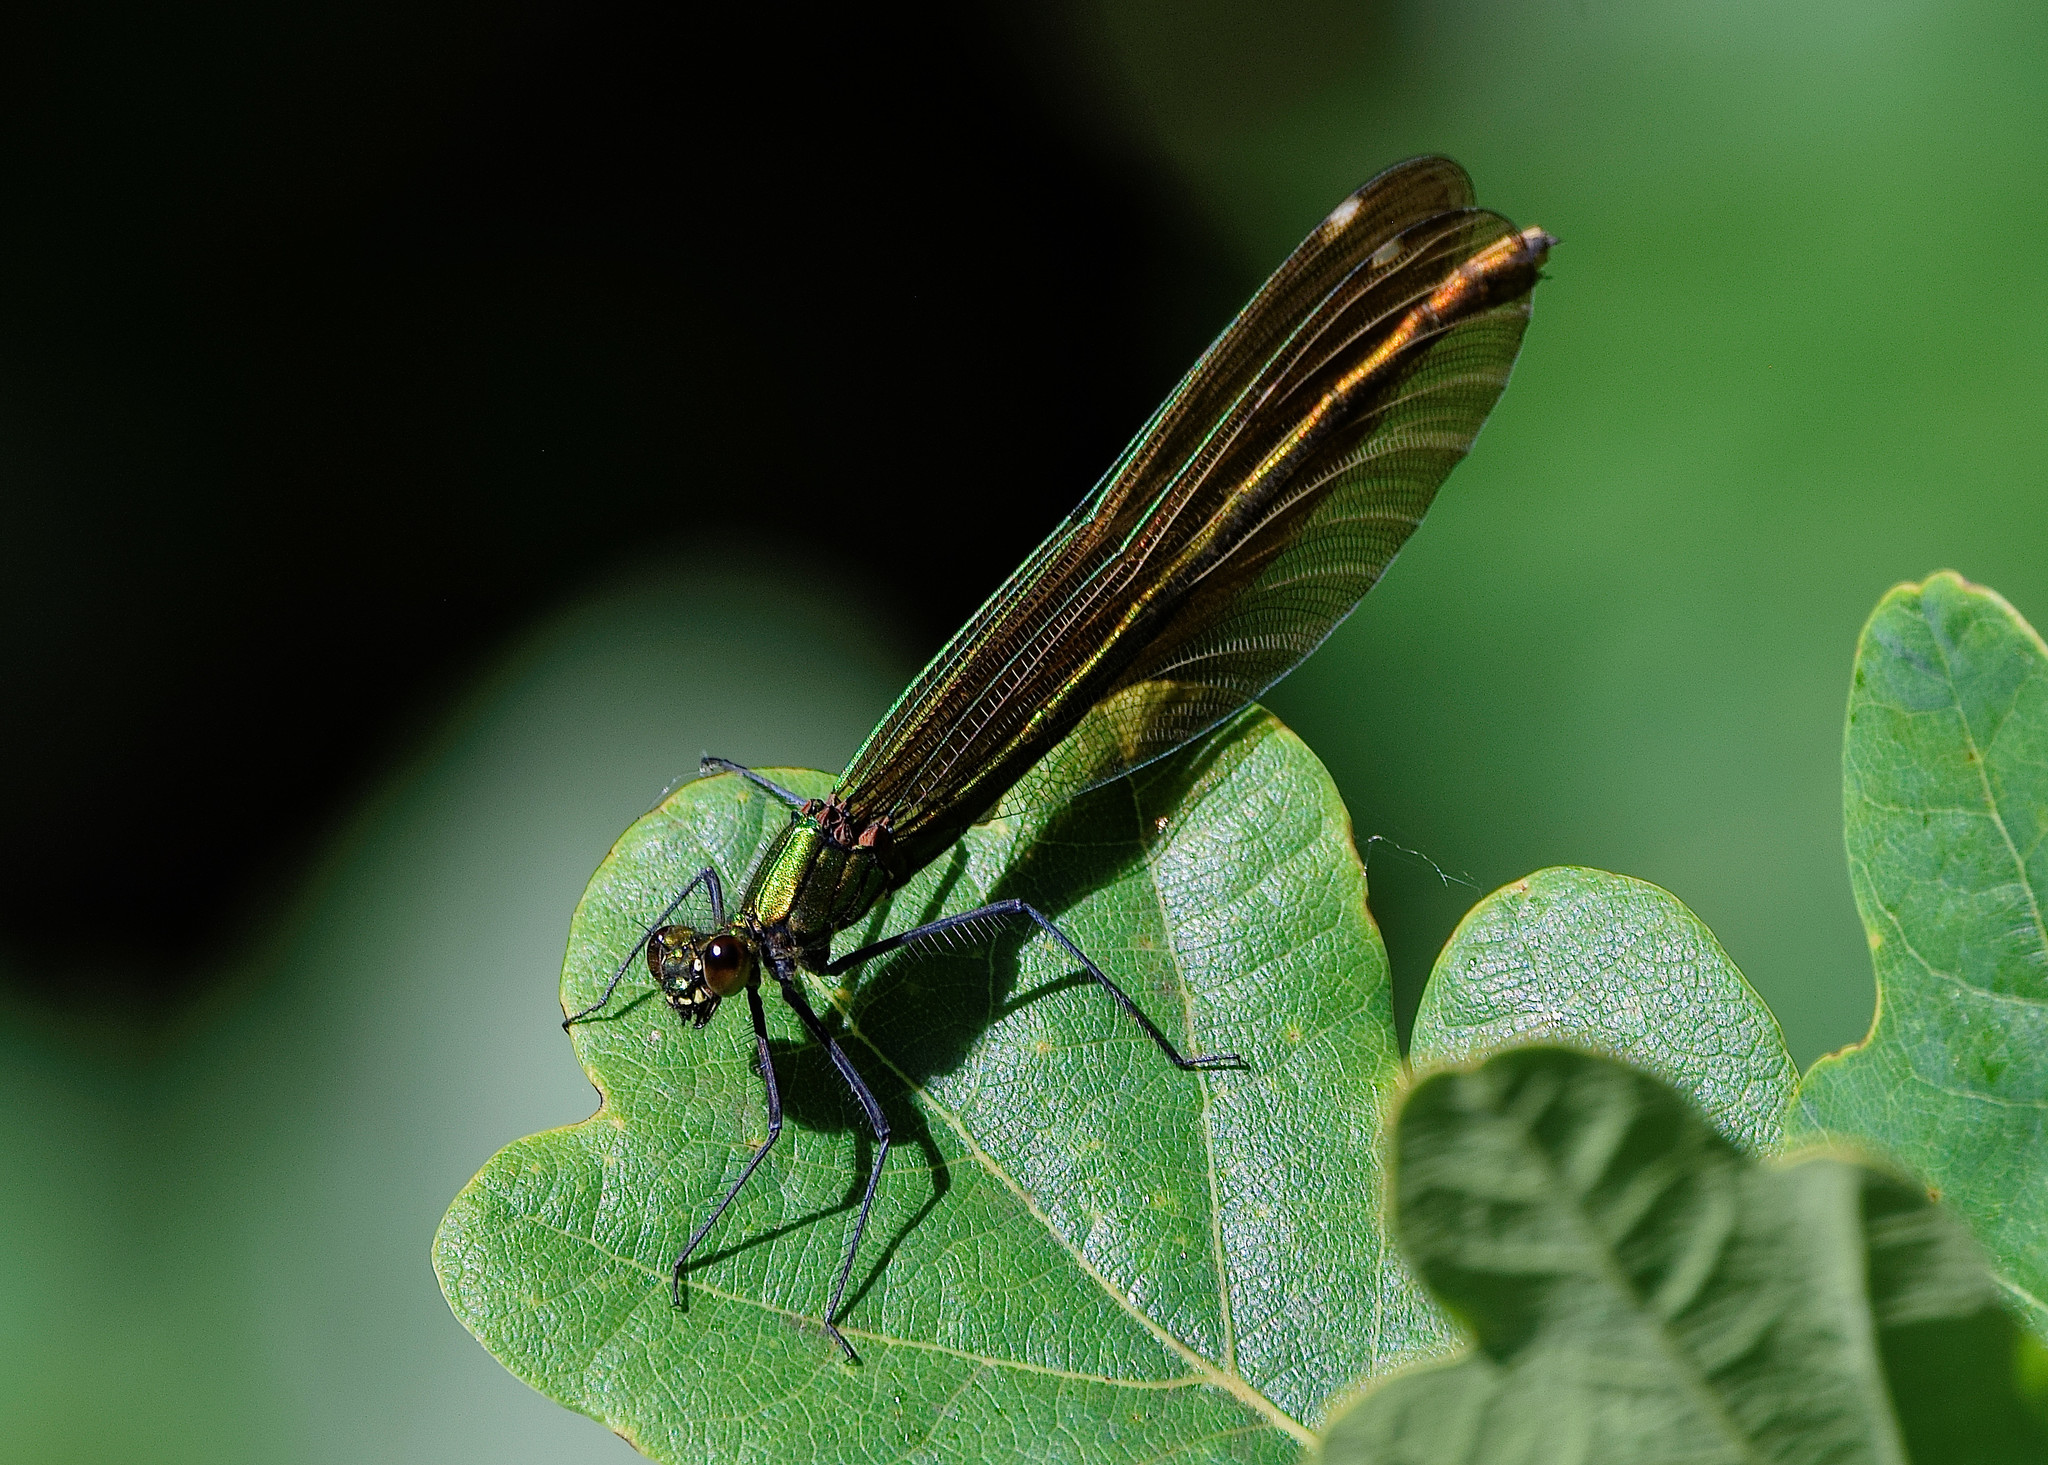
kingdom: Animalia
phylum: Arthropoda
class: Insecta
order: Odonata
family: Calopterygidae
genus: Calopteryx
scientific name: Calopteryx virgo
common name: Beautiful demoiselle
